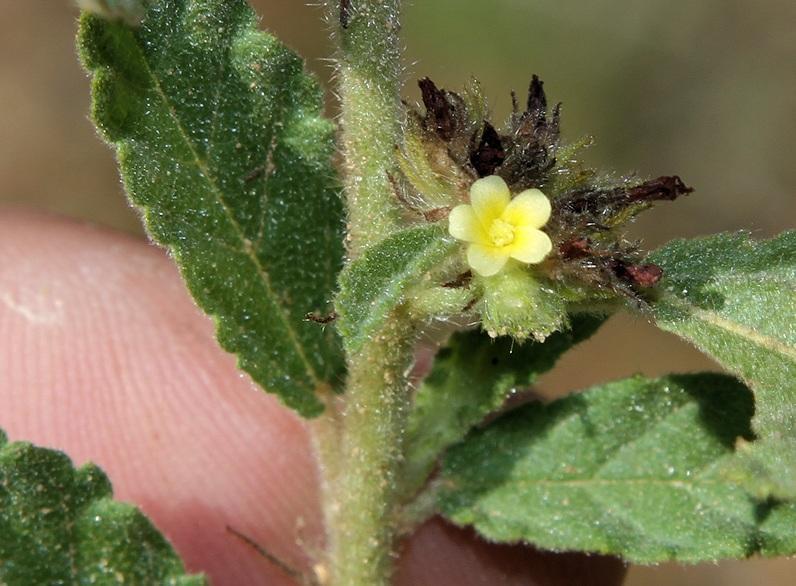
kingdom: Plantae
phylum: Tracheophyta
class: Magnoliopsida
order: Malvales
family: Malvaceae
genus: Waltheria
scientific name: Waltheria indica
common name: Leather-coat
